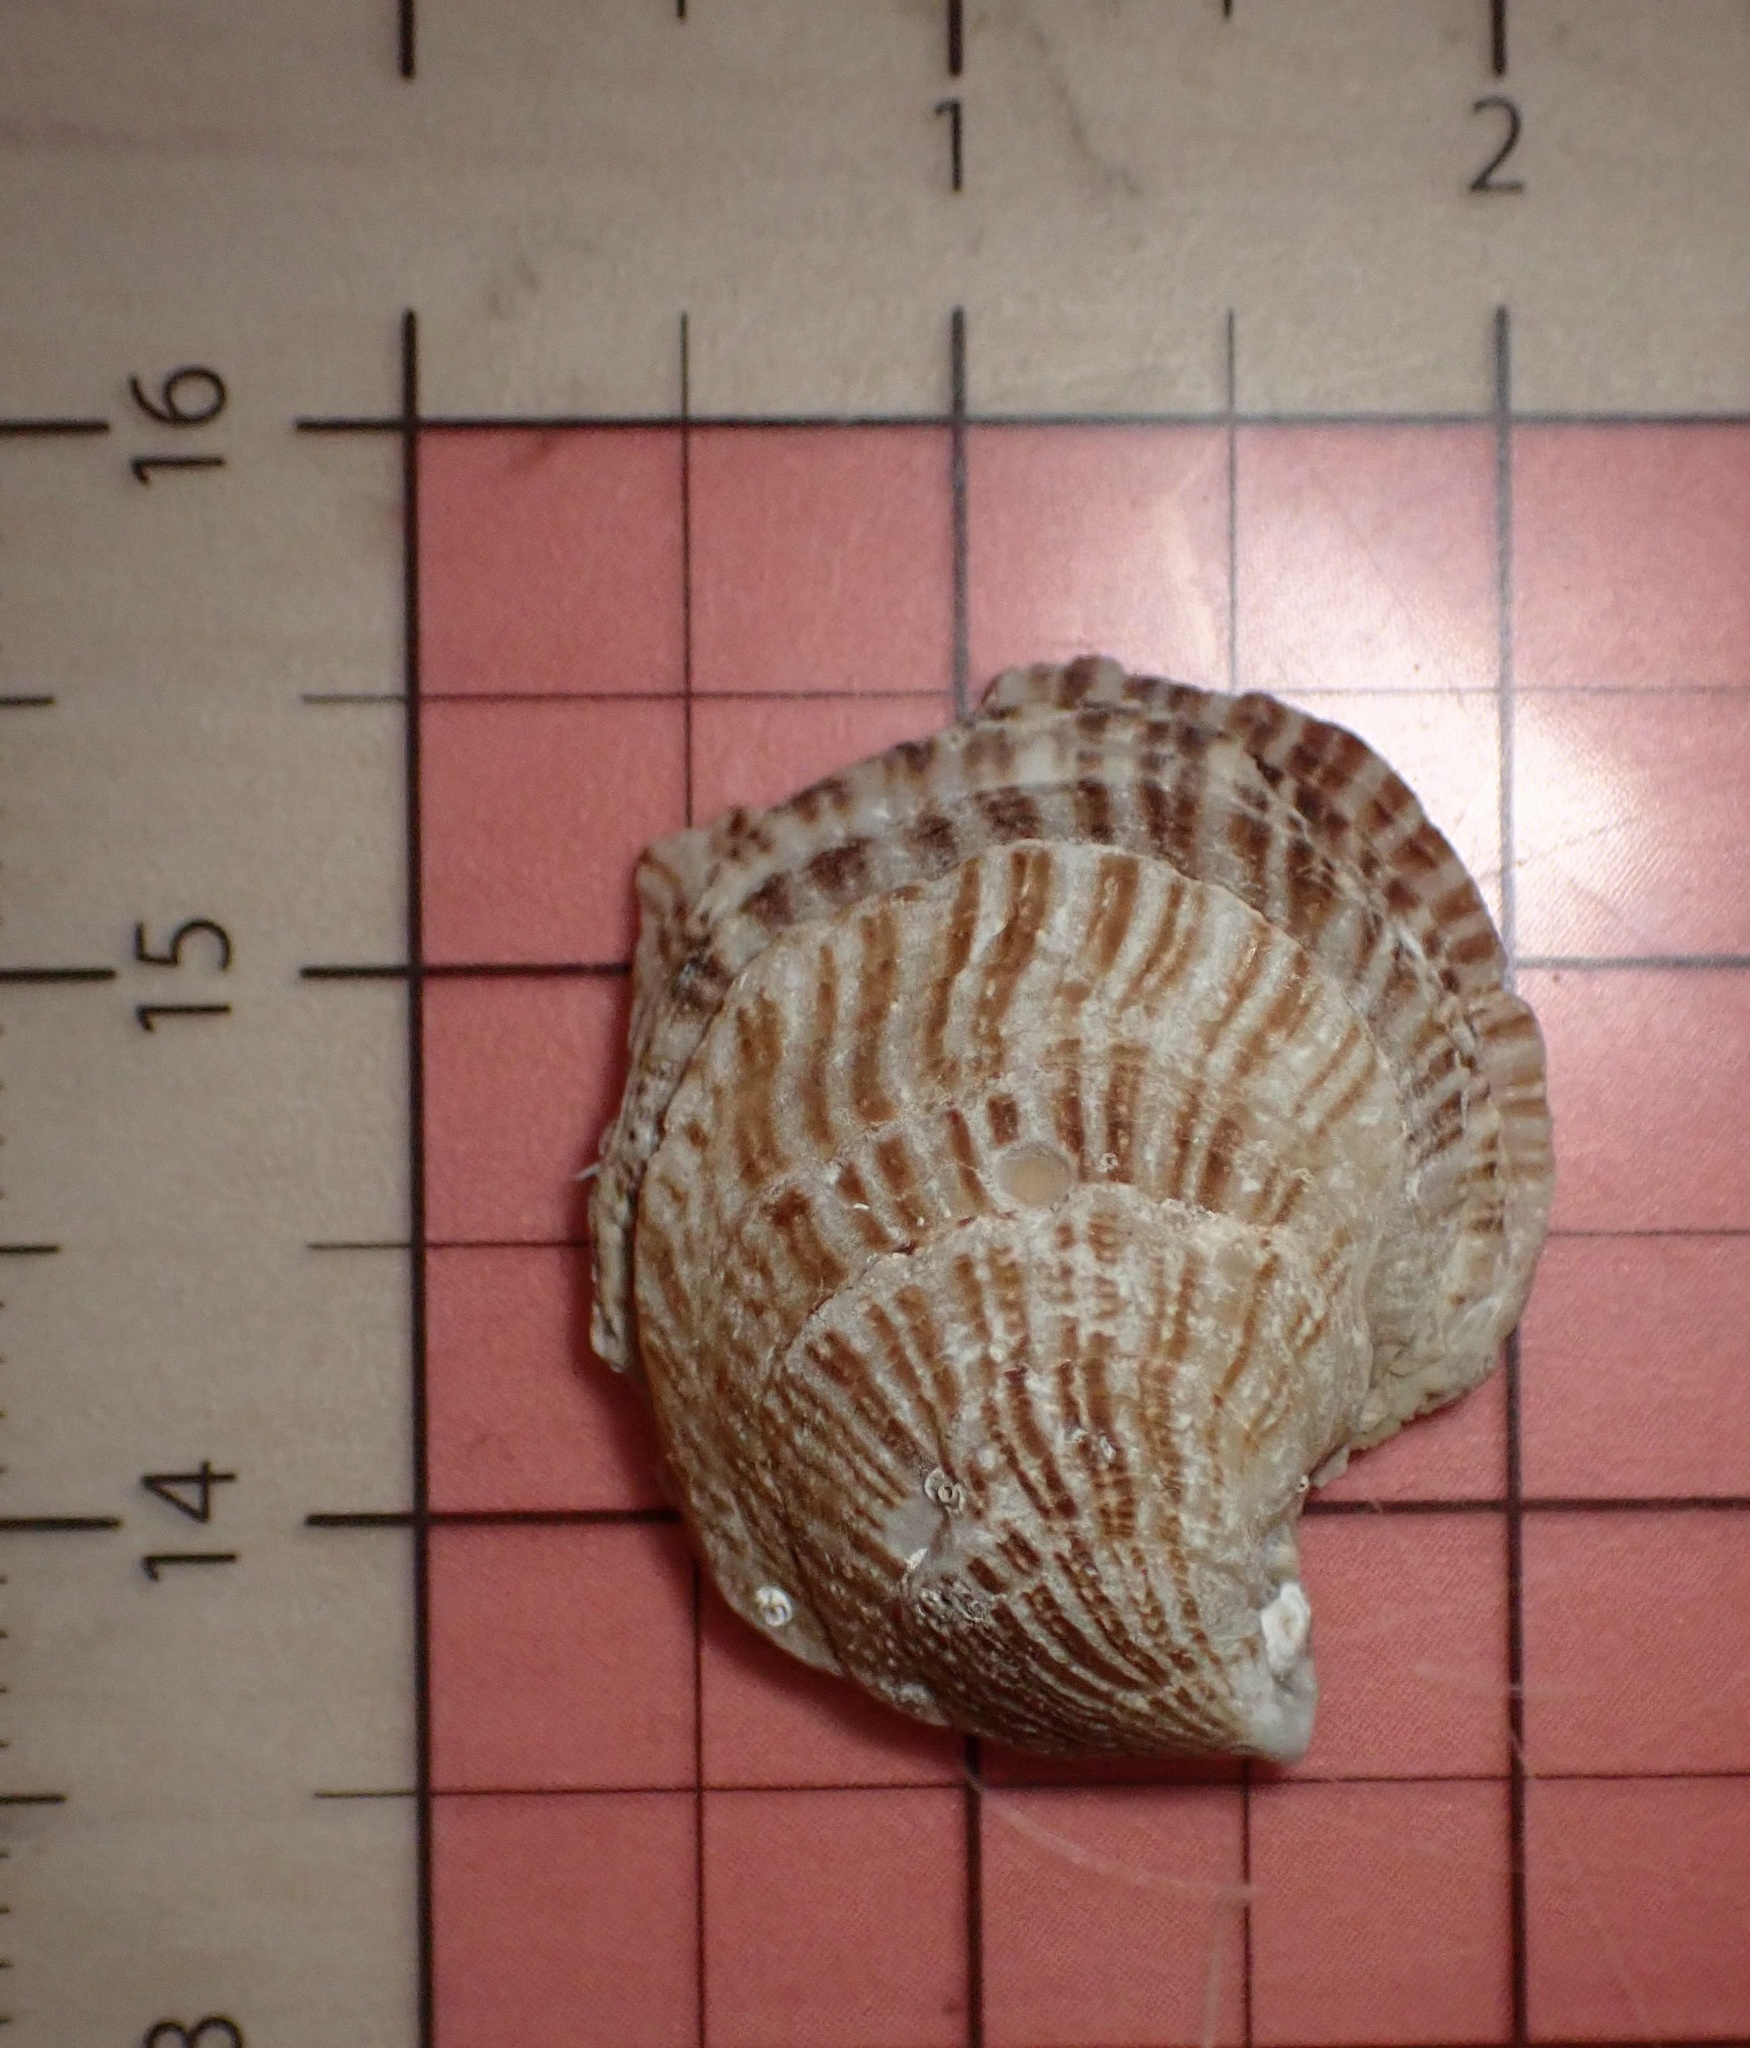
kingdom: Animalia
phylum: Mollusca
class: Bivalvia
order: Ostreida
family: Isognomonidae
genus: Isognomon
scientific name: Isognomon perna
